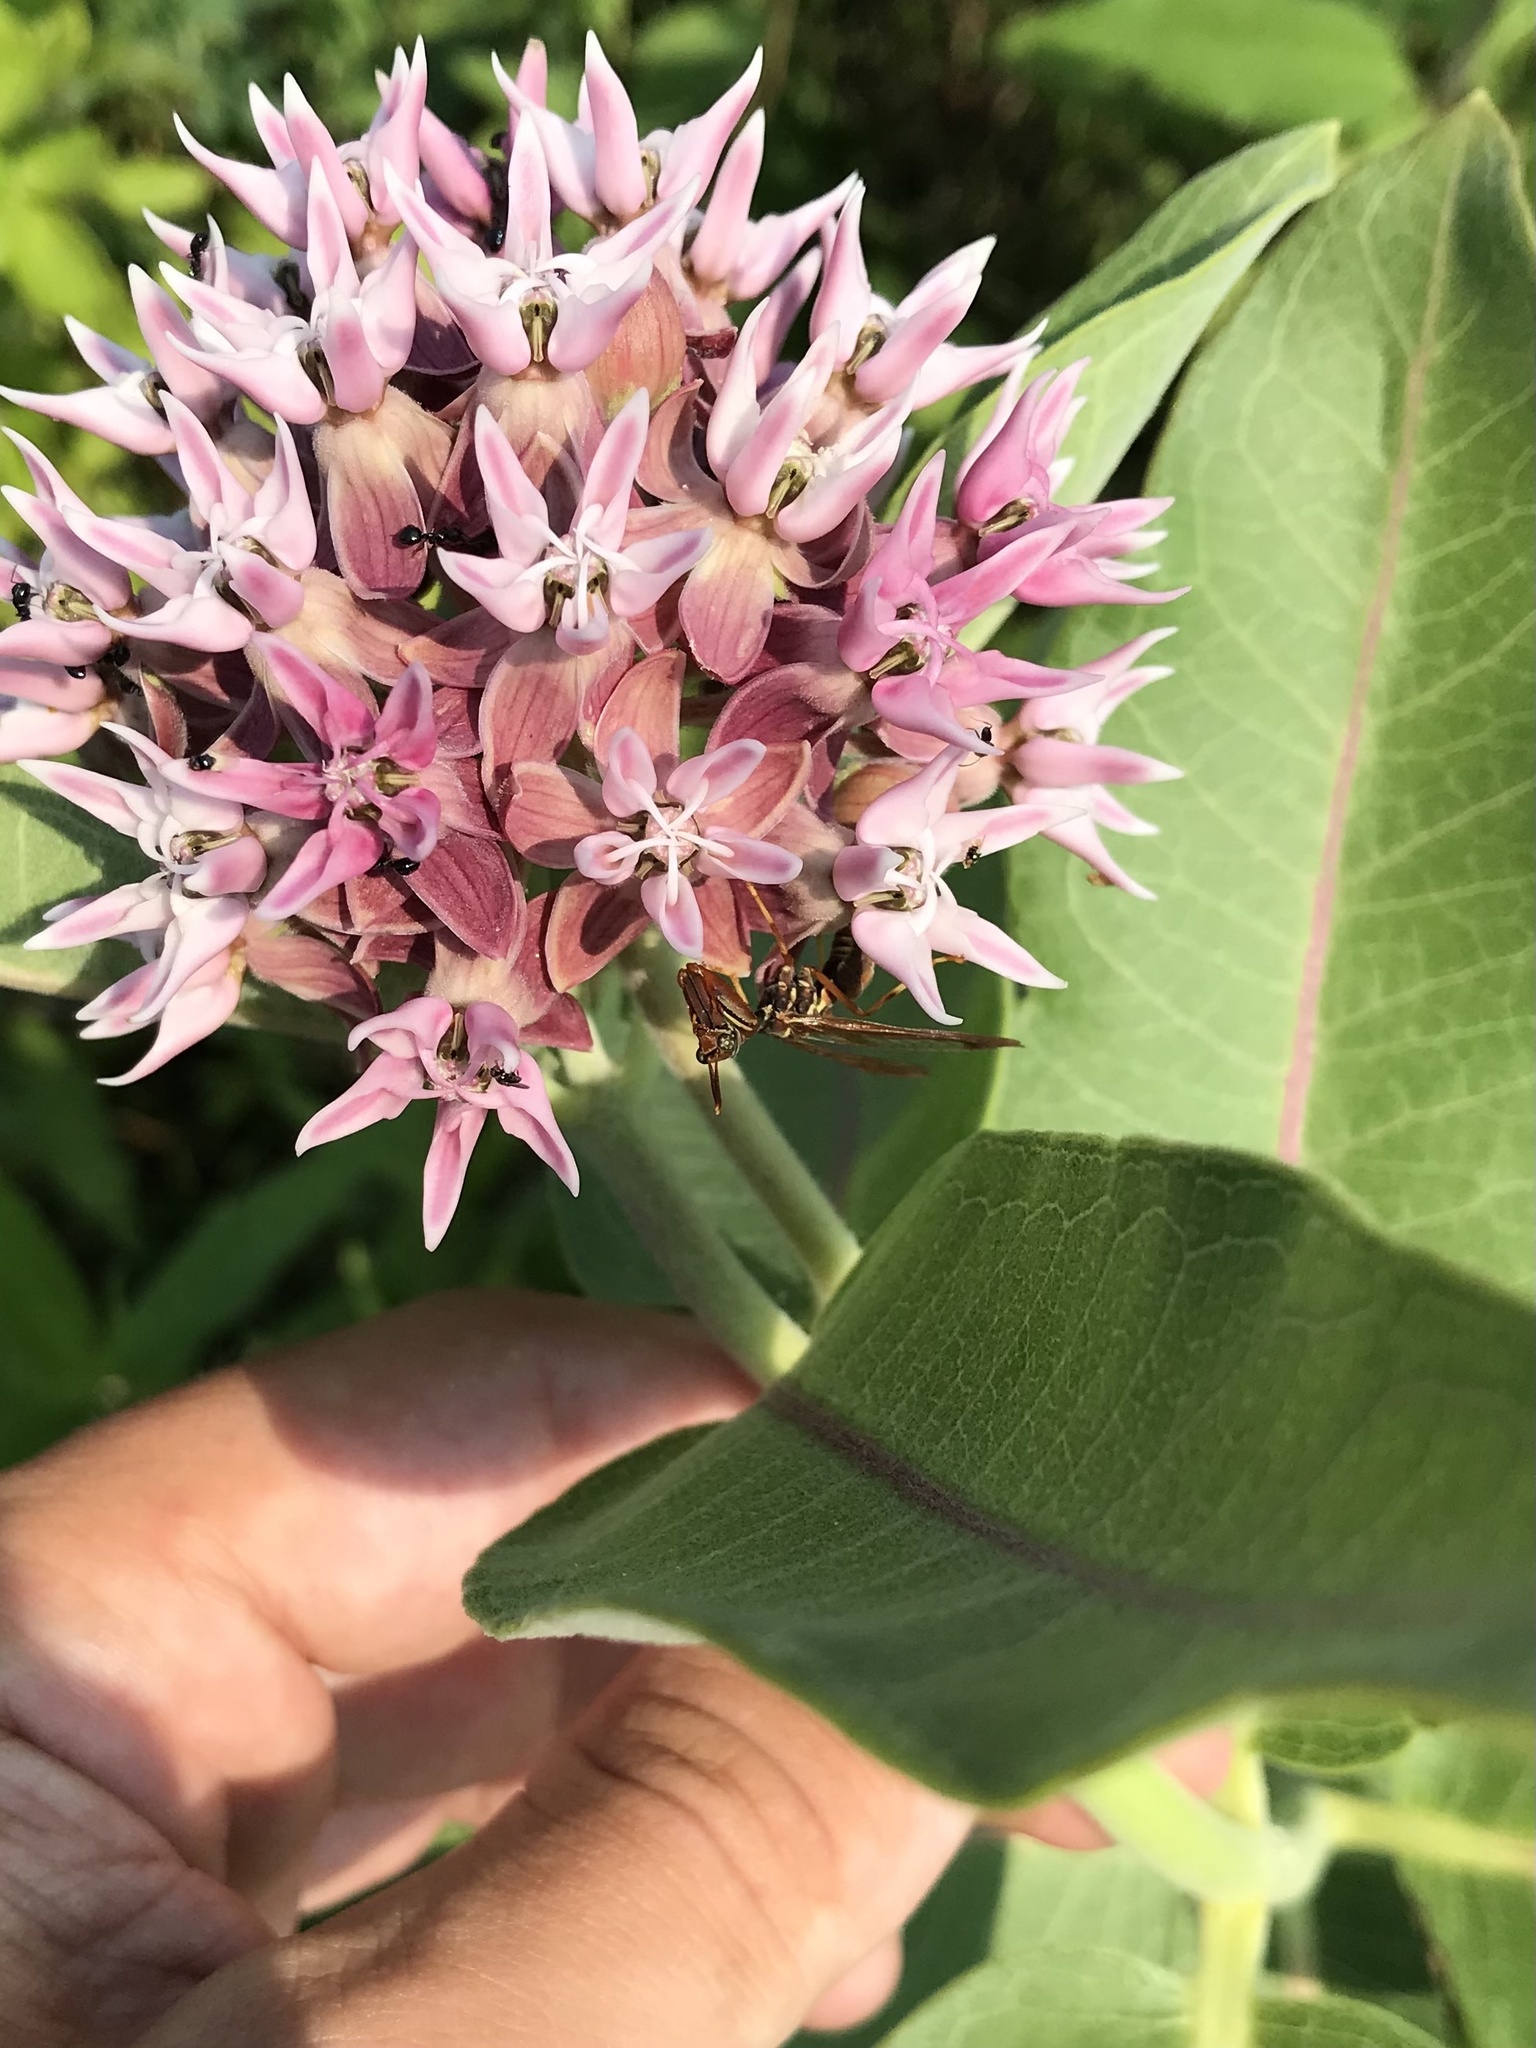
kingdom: Animalia
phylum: Arthropoda
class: Insecta
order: Neuroptera
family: Mantispidae
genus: Climaciella
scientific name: Climaciella brunnea
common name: Brown wasp mantidfly
